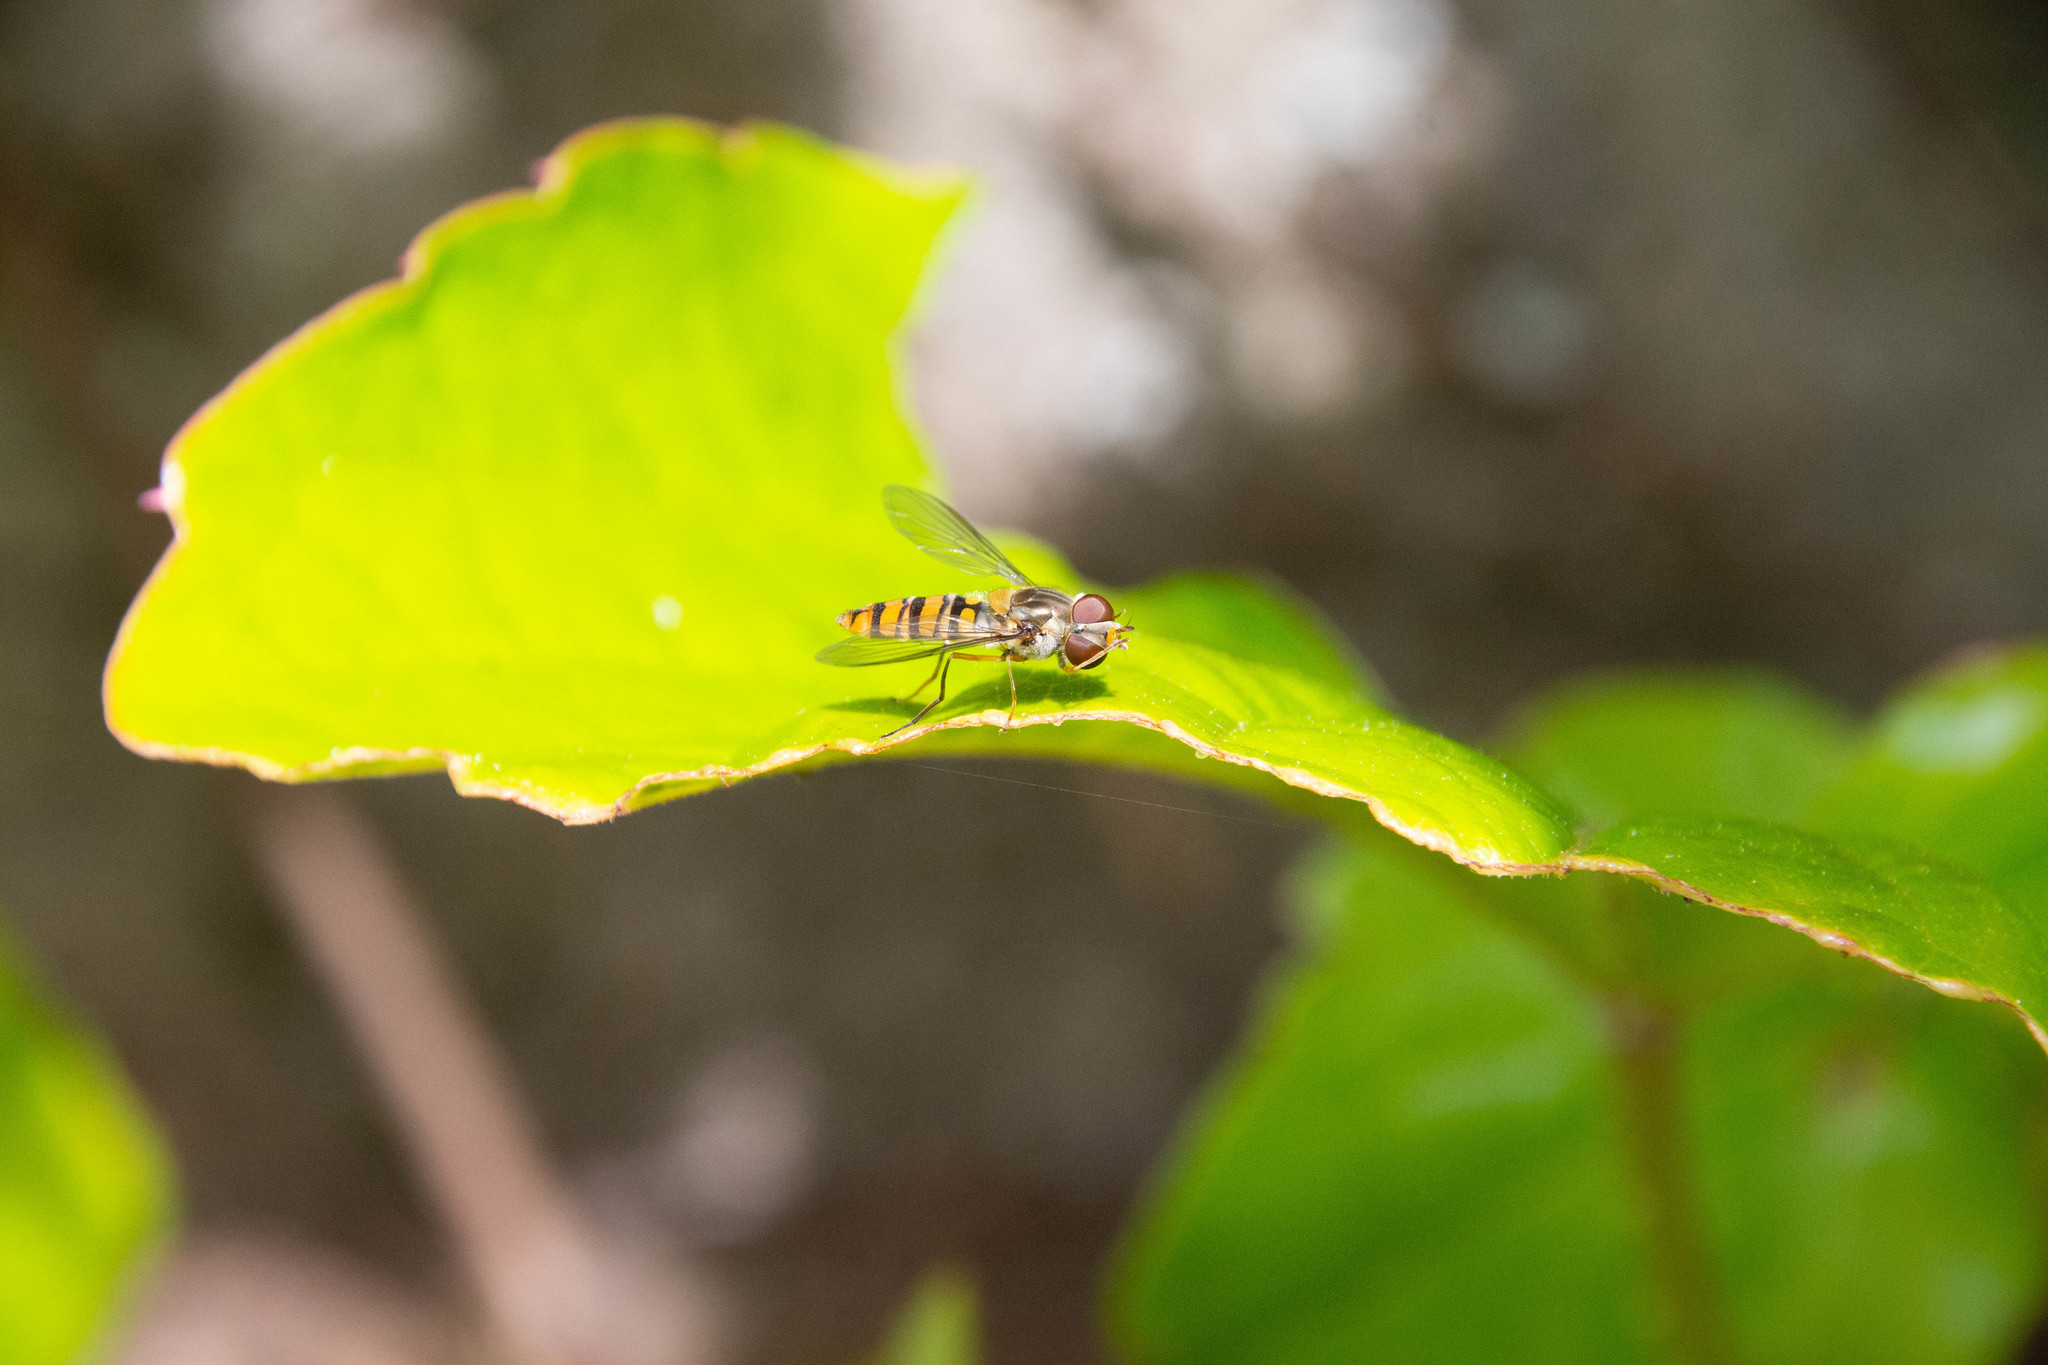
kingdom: Animalia
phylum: Arthropoda
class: Insecta
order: Diptera
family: Syrphidae
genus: Episyrphus
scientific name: Episyrphus balteatus
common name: Marmalade hoverfly
